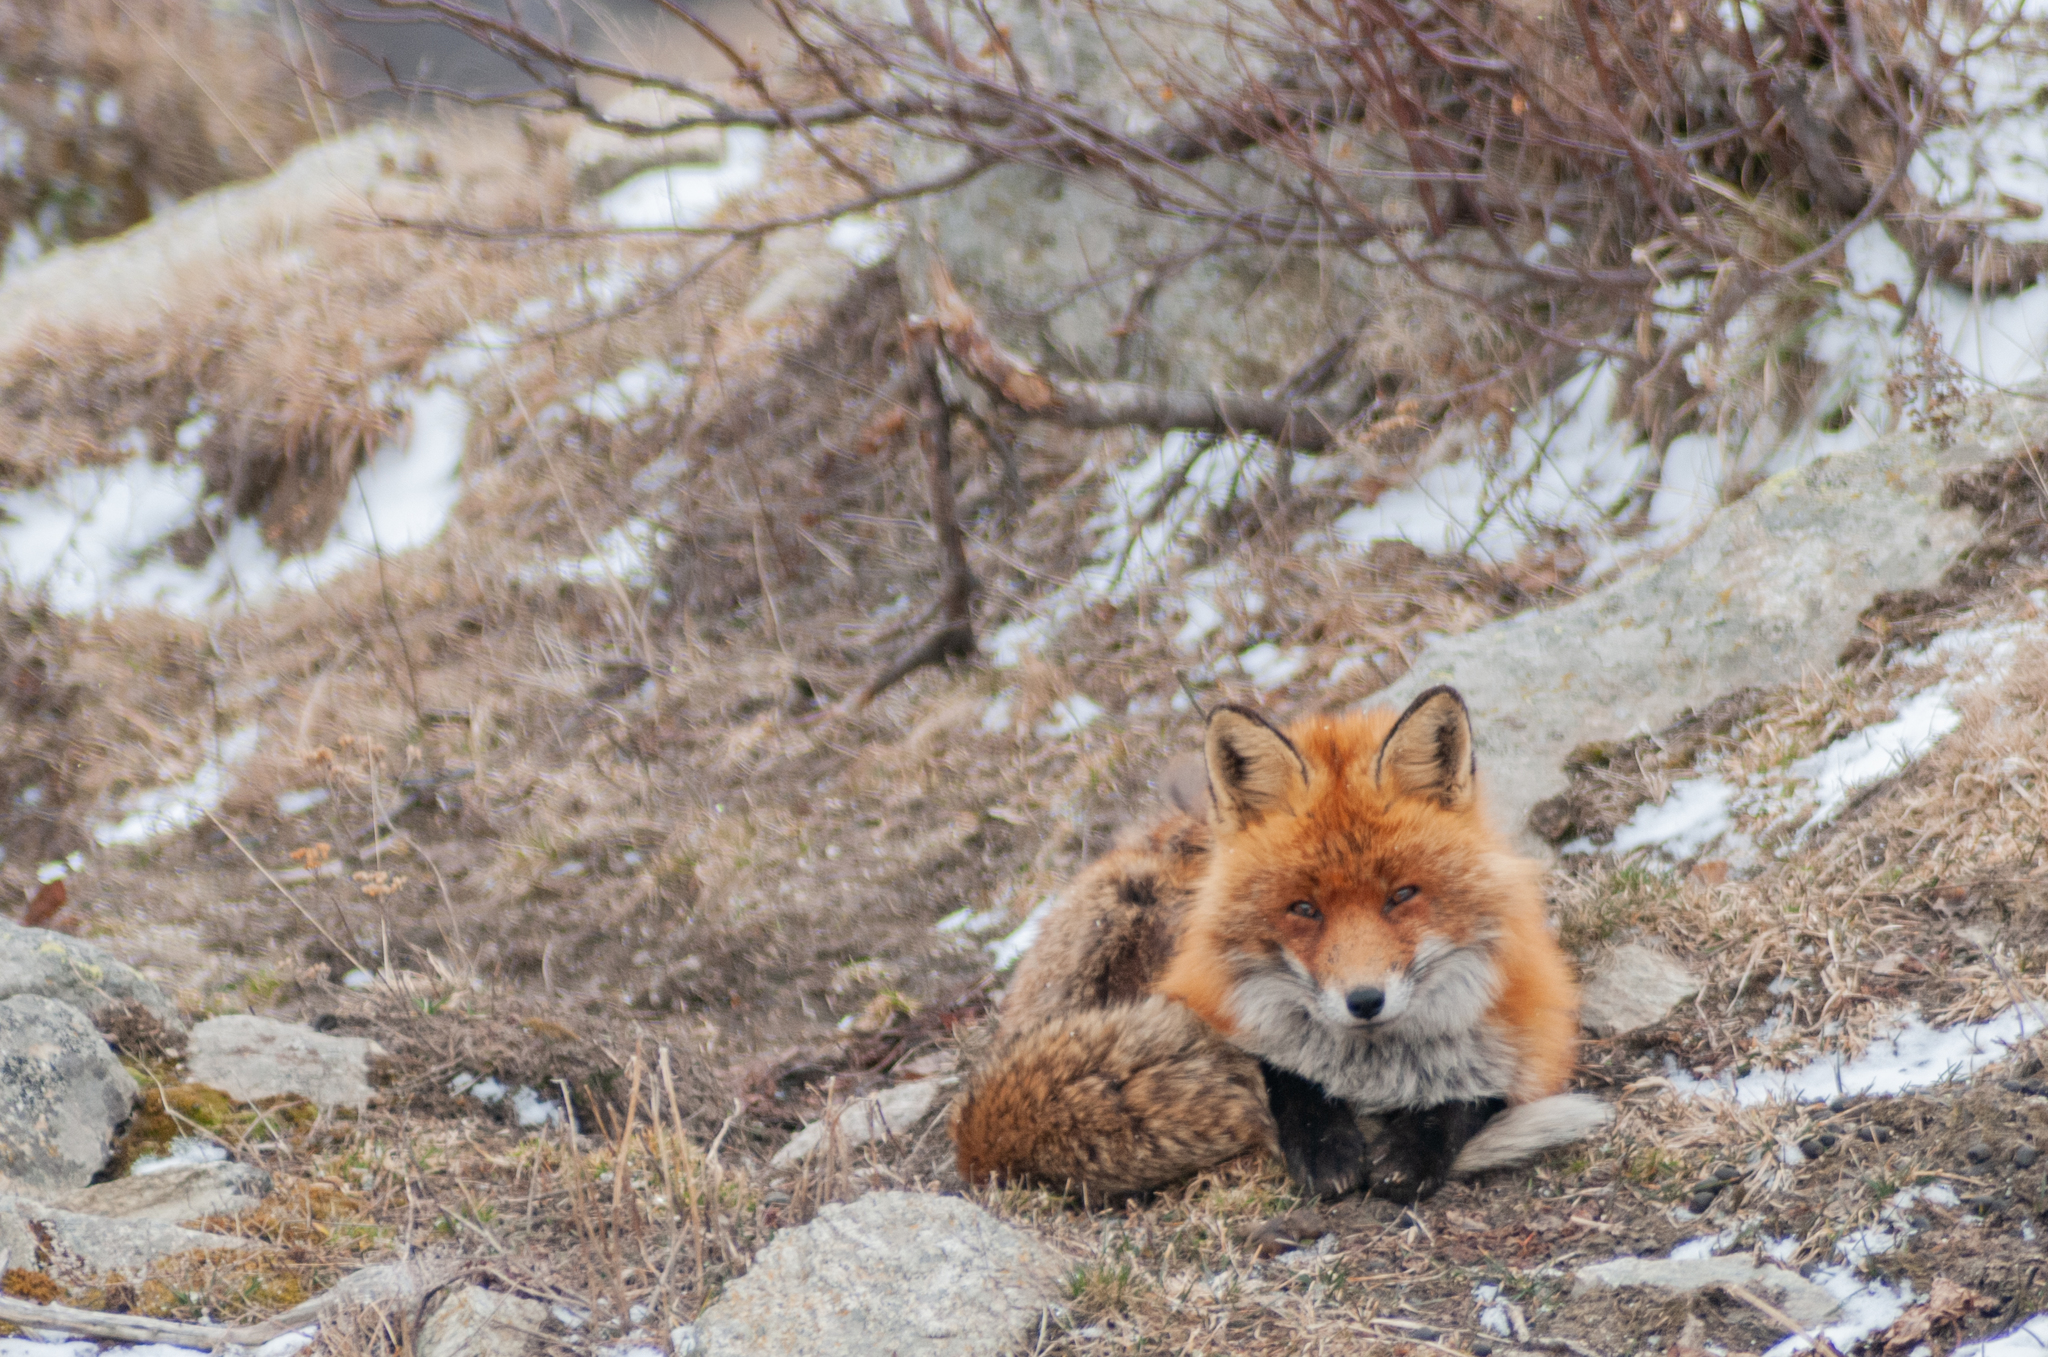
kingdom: Animalia
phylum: Chordata
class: Mammalia
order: Carnivora
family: Canidae
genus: Vulpes
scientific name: Vulpes vulpes
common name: Red fox
